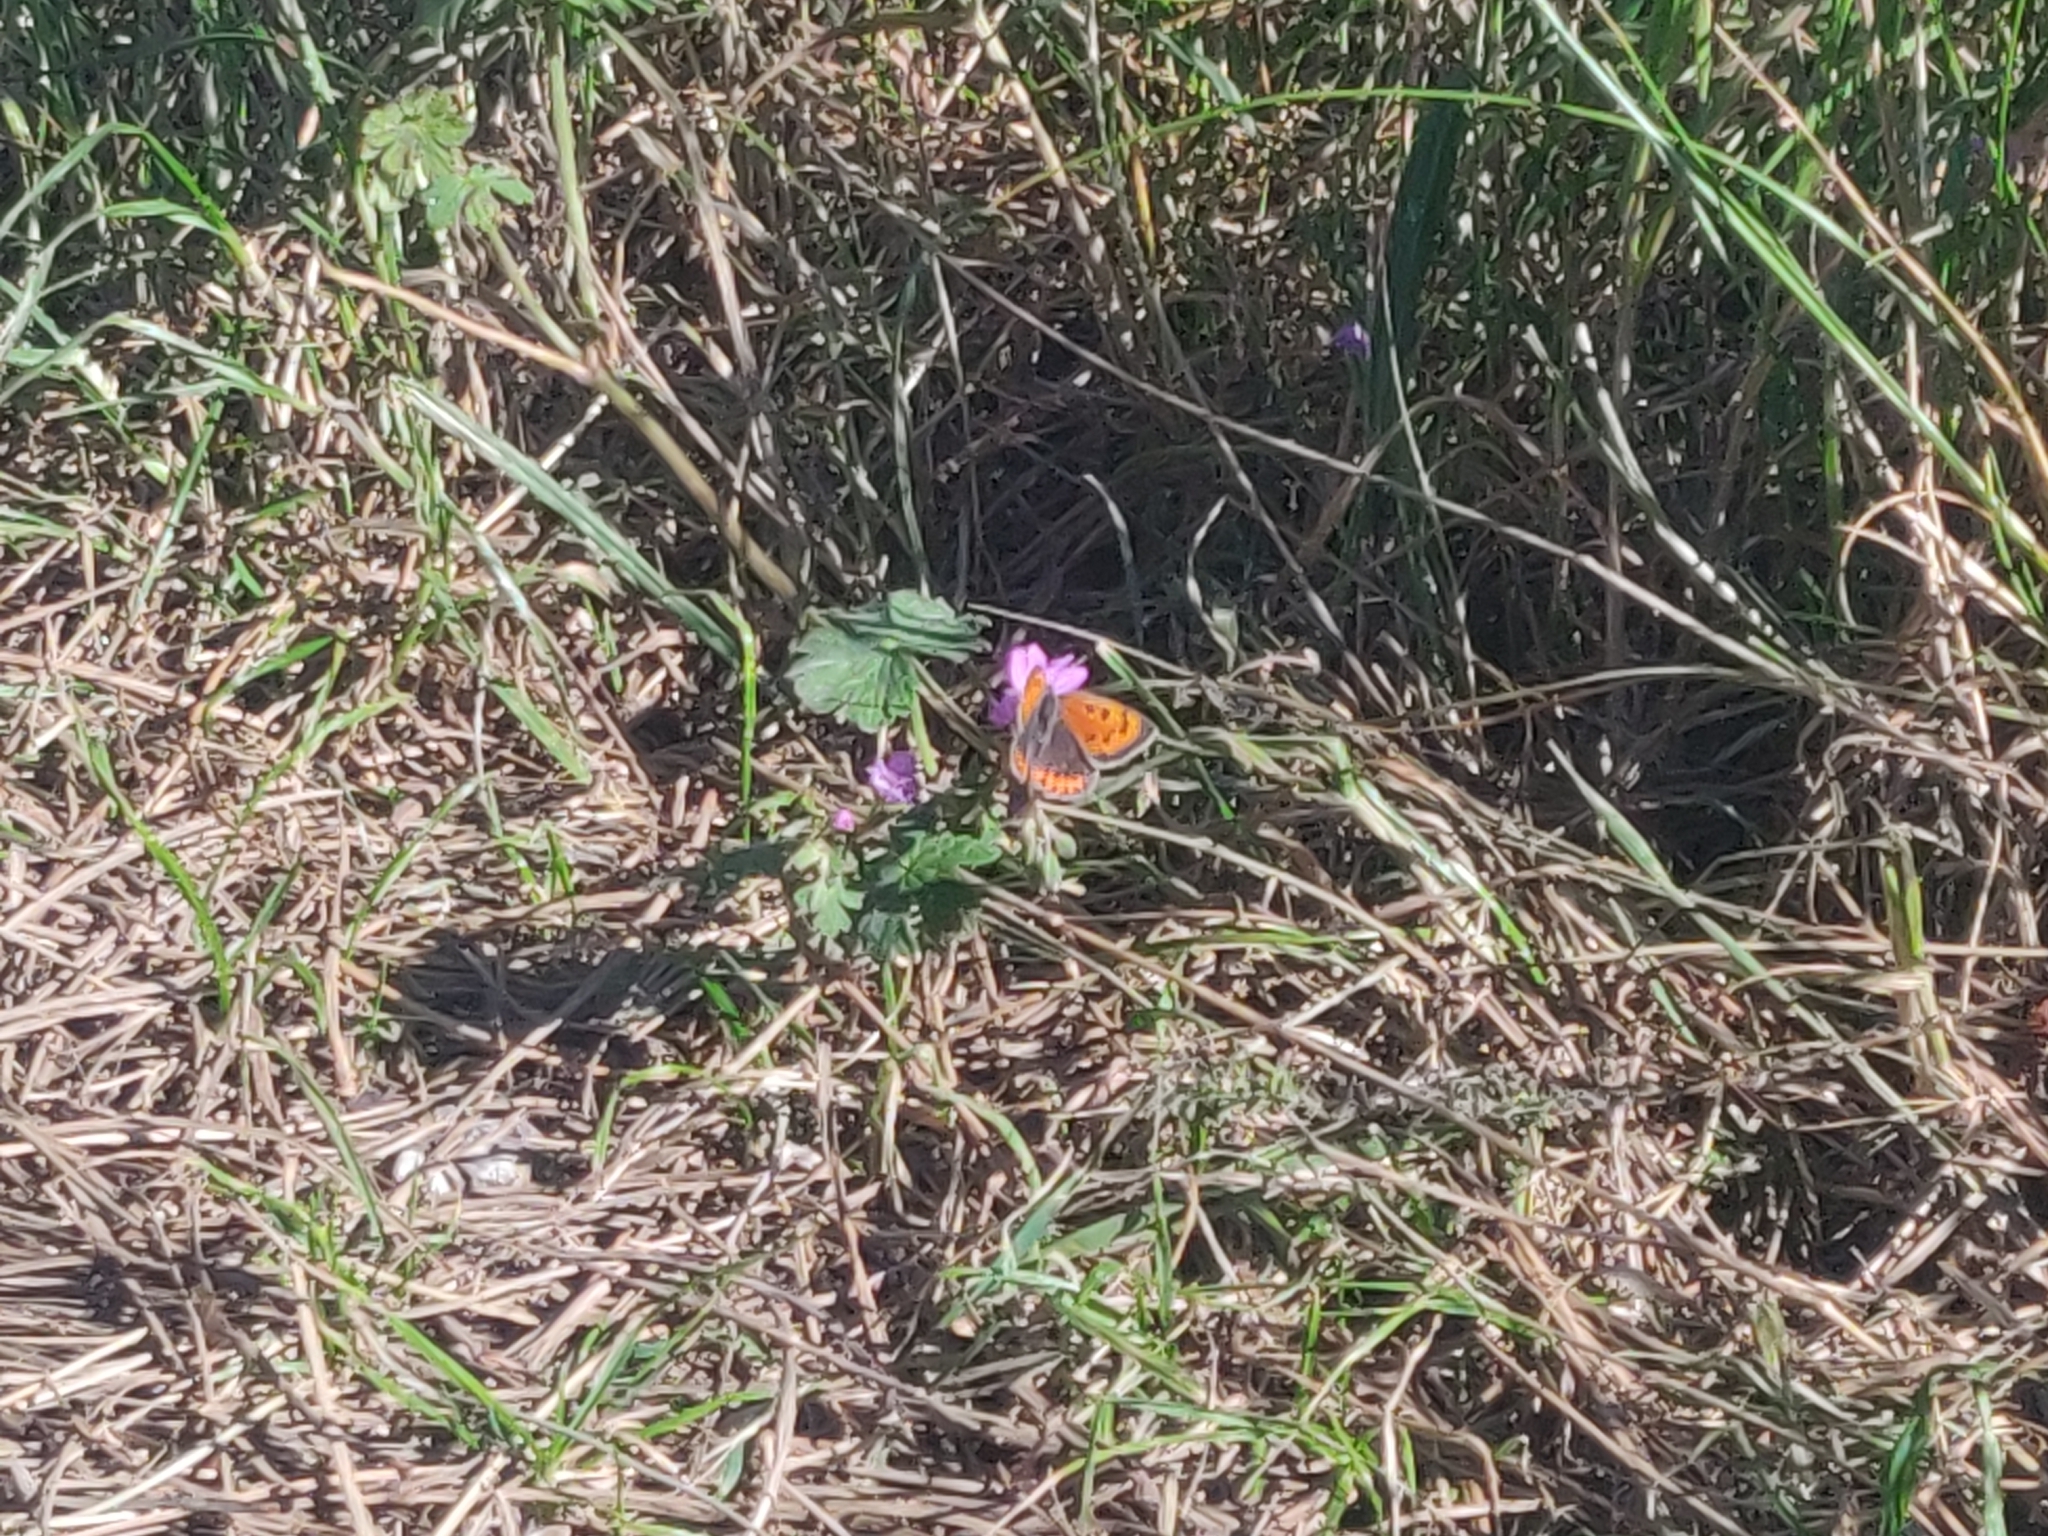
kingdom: Animalia
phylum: Arthropoda
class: Insecta
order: Lepidoptera
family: Lycaenidae
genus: Lycaena
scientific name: Lycaena phlaeas
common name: Small copper
